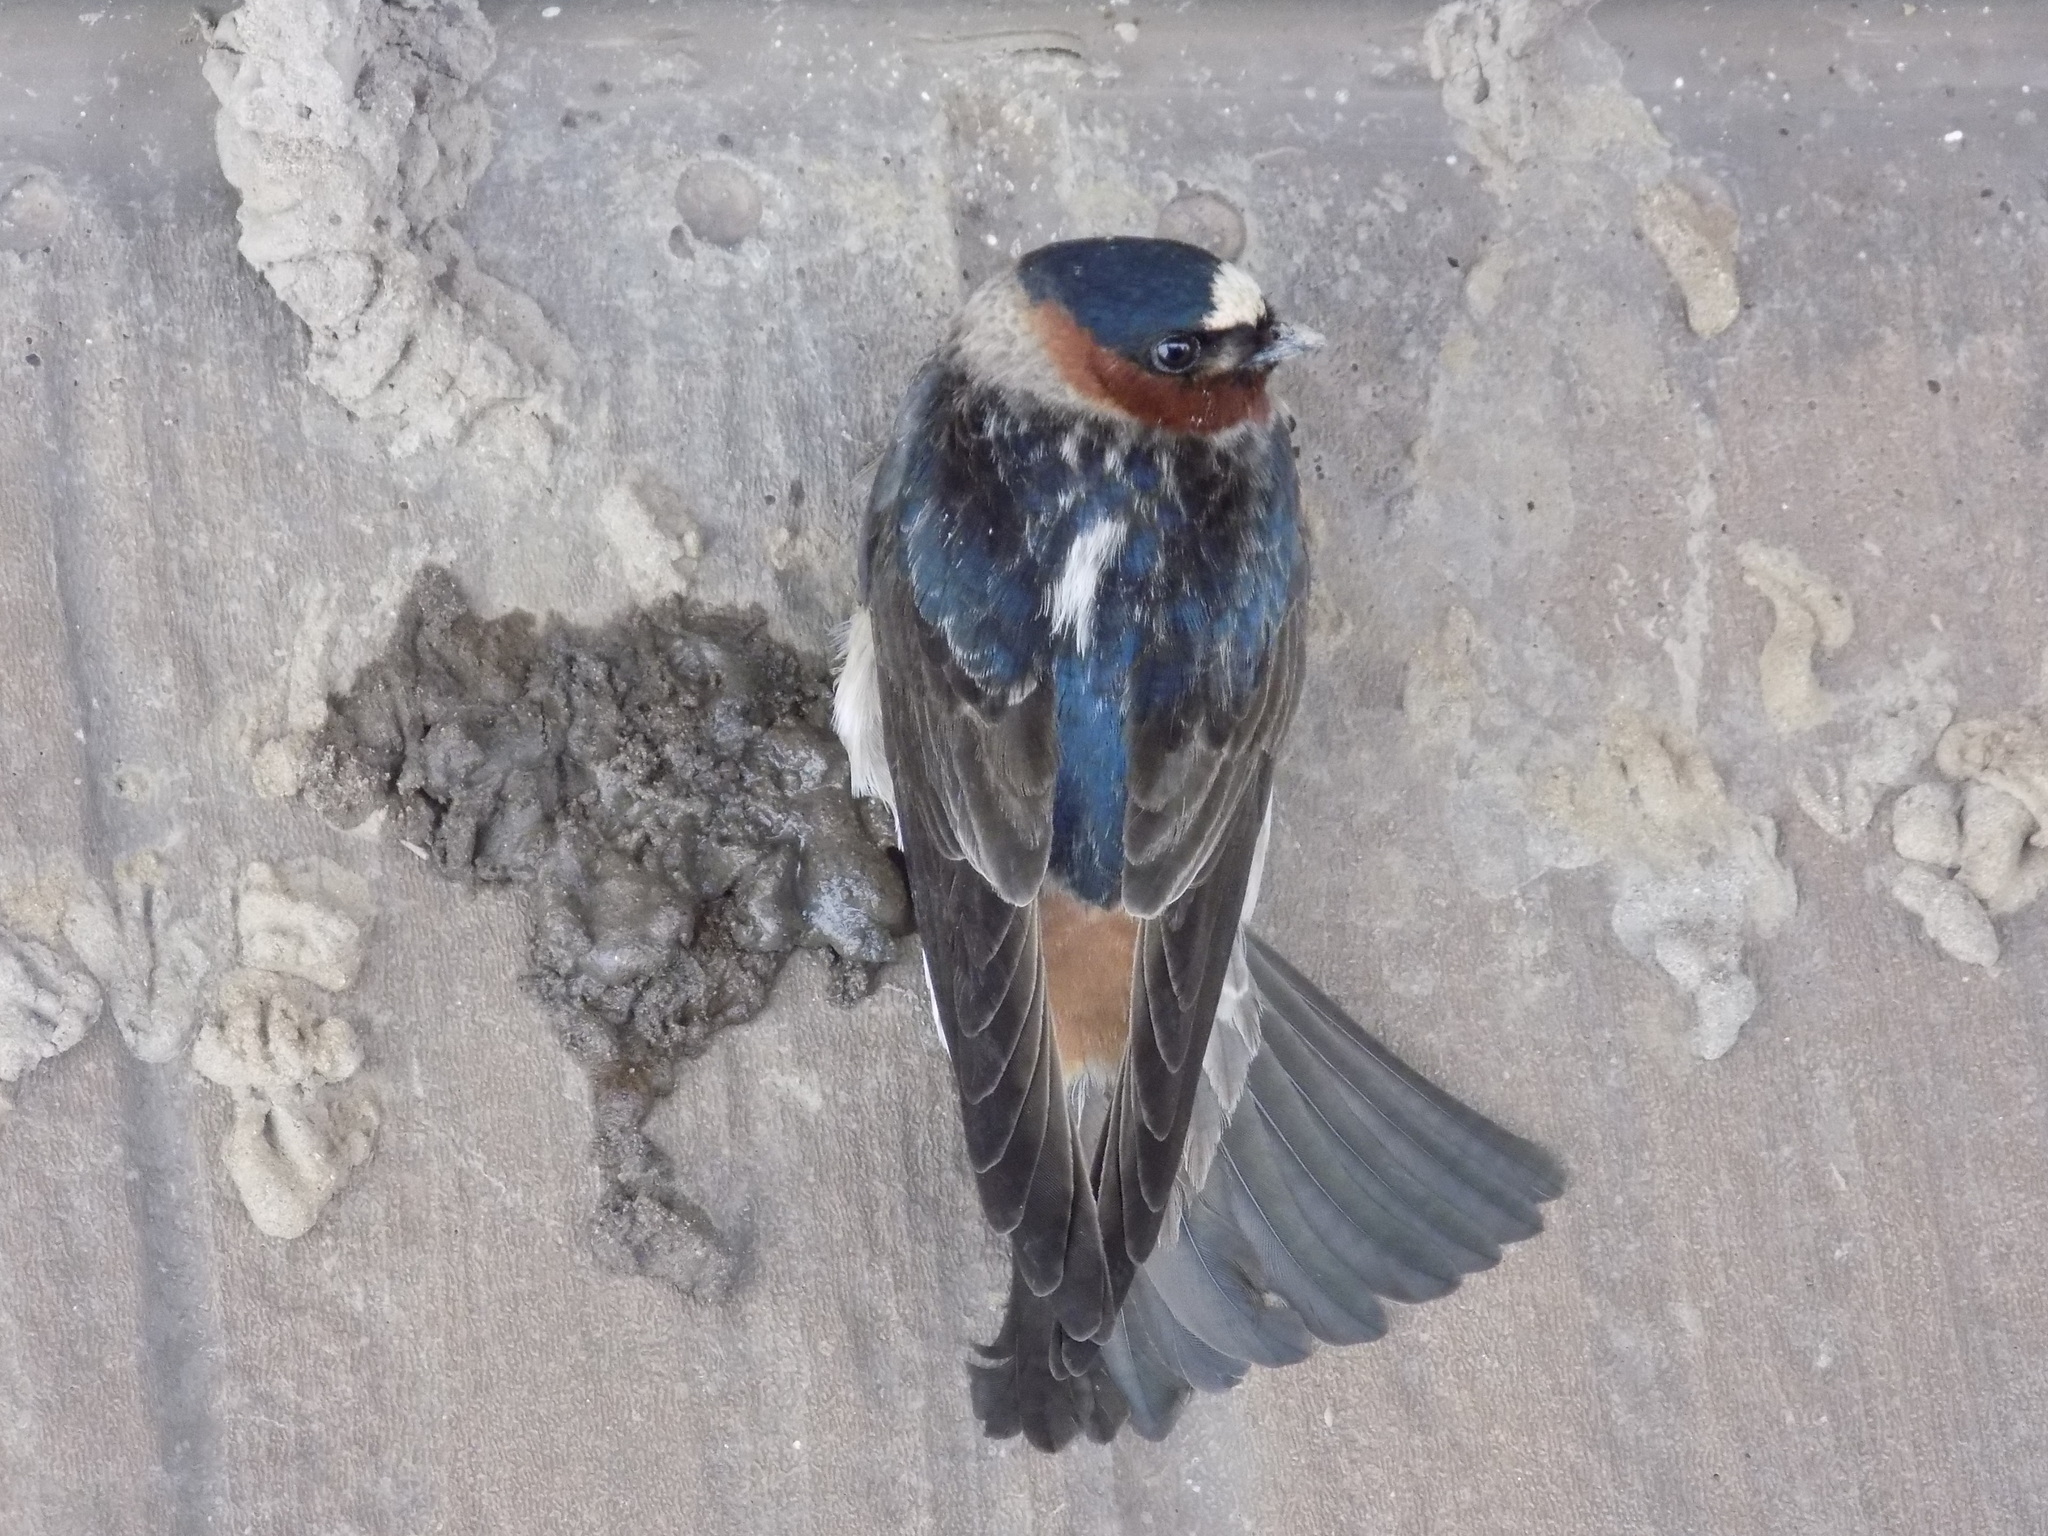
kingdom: Animalia
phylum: Chordata
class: Aves
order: Passeriformes
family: Hirundinidae
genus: Petrochelidon
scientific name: Petrochelidon pyrrhonota
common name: American cliff swallow
